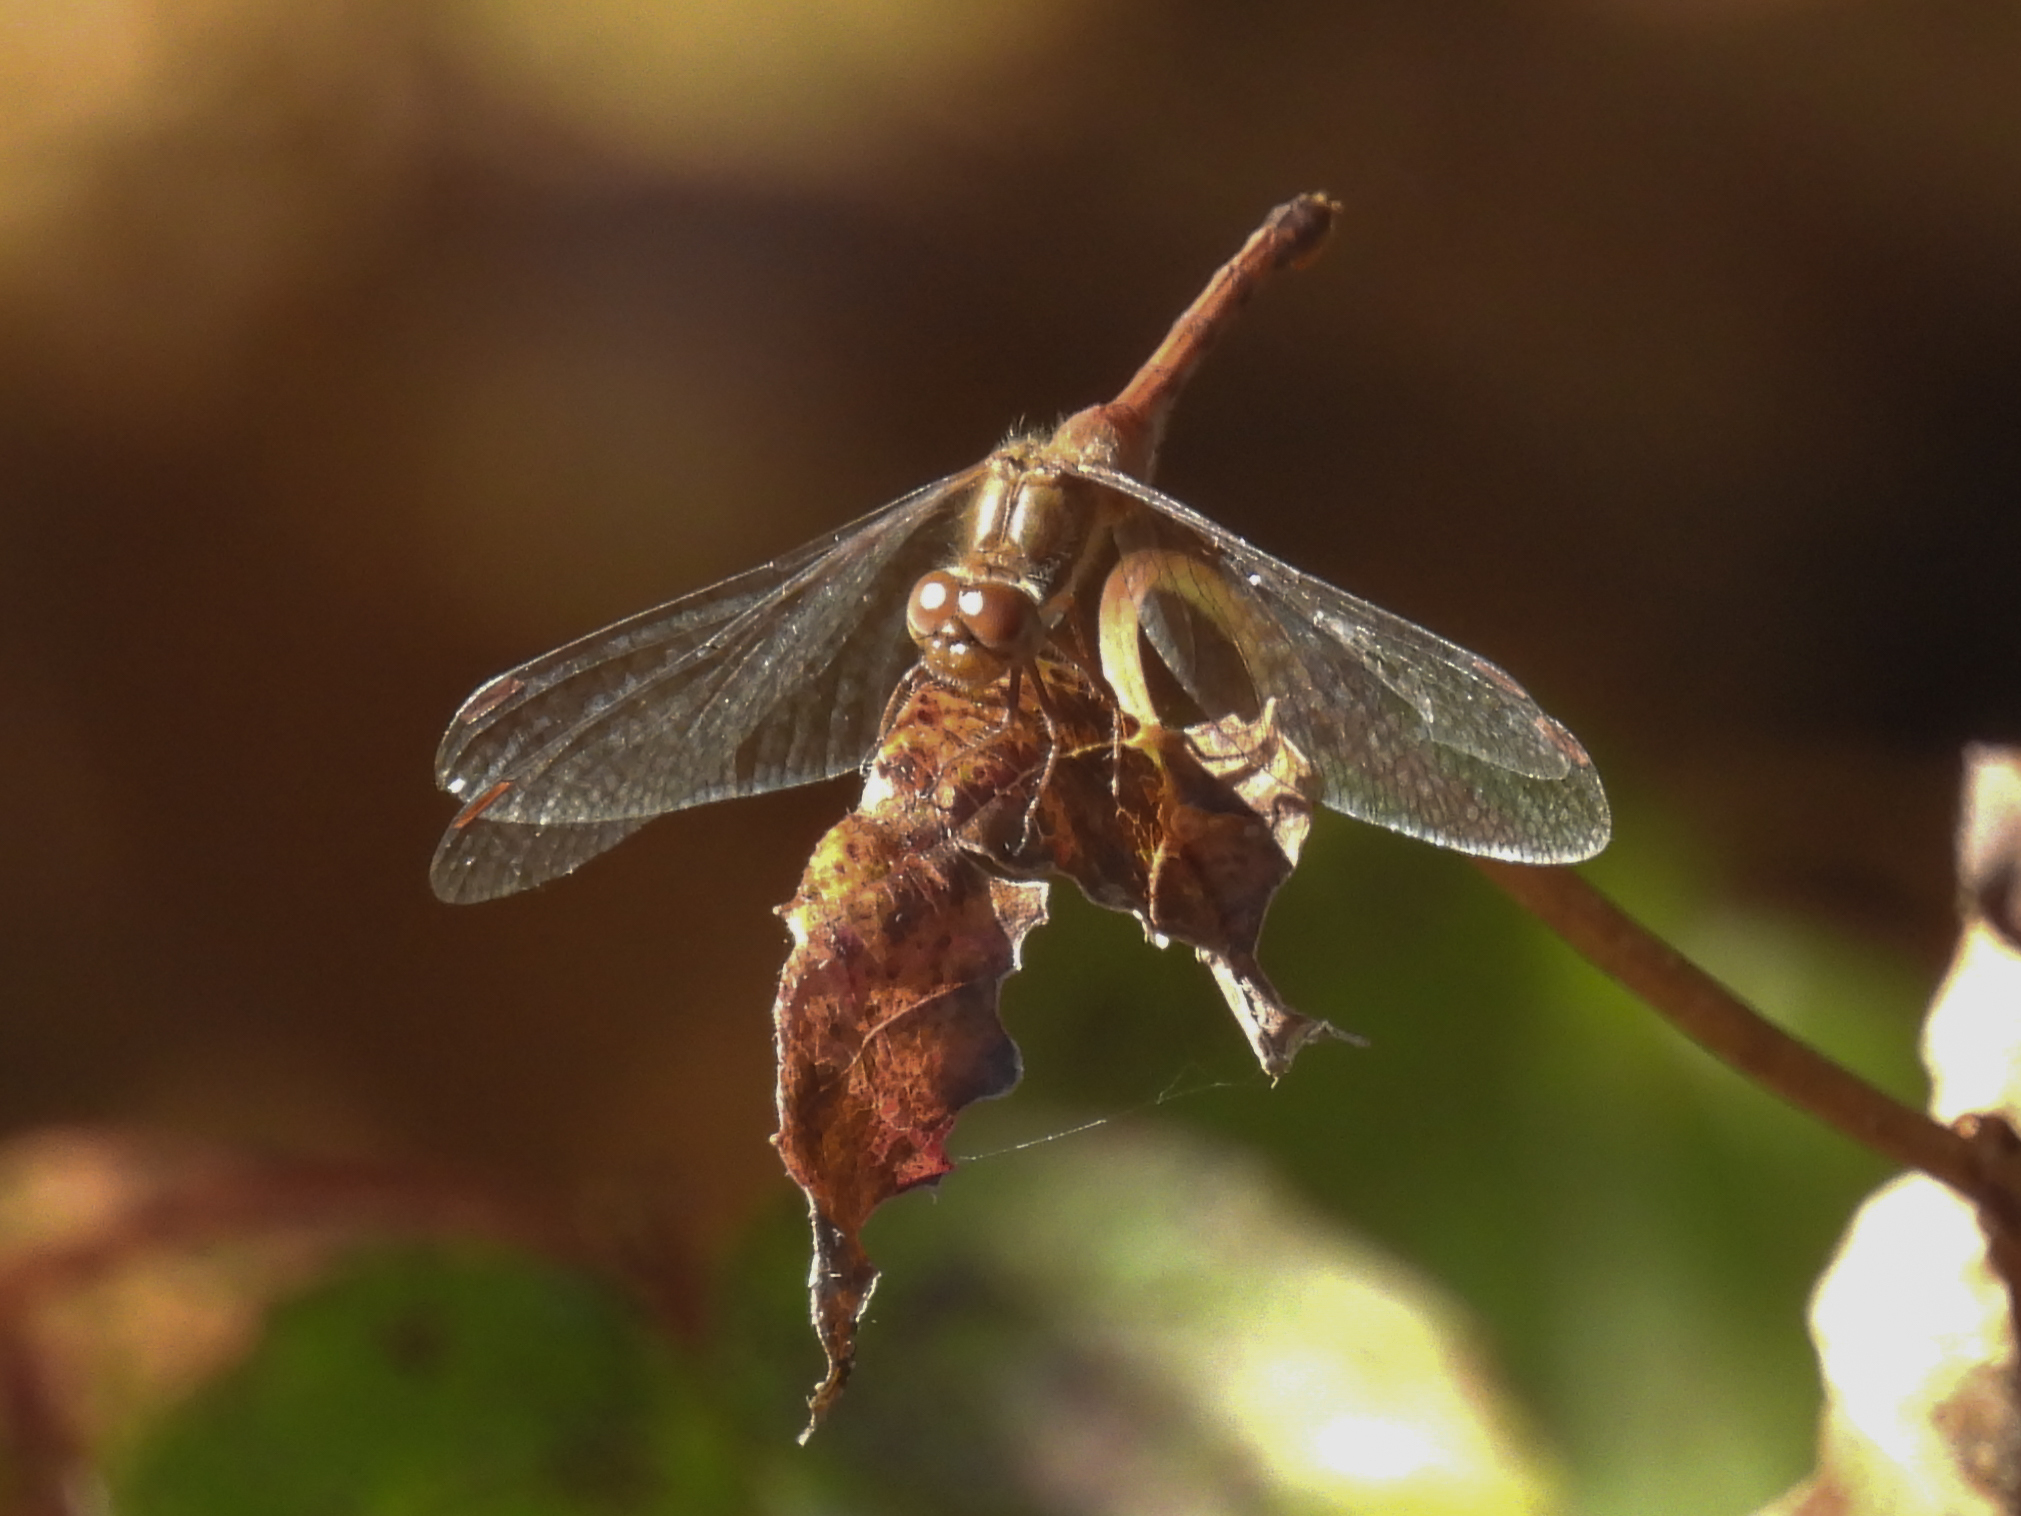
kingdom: Animalia
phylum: Arthropoda
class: Insecta
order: Odonata
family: Libellulidae
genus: Sympetrum
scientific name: Sympetrum vicinum
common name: Autumn meadowhawk
